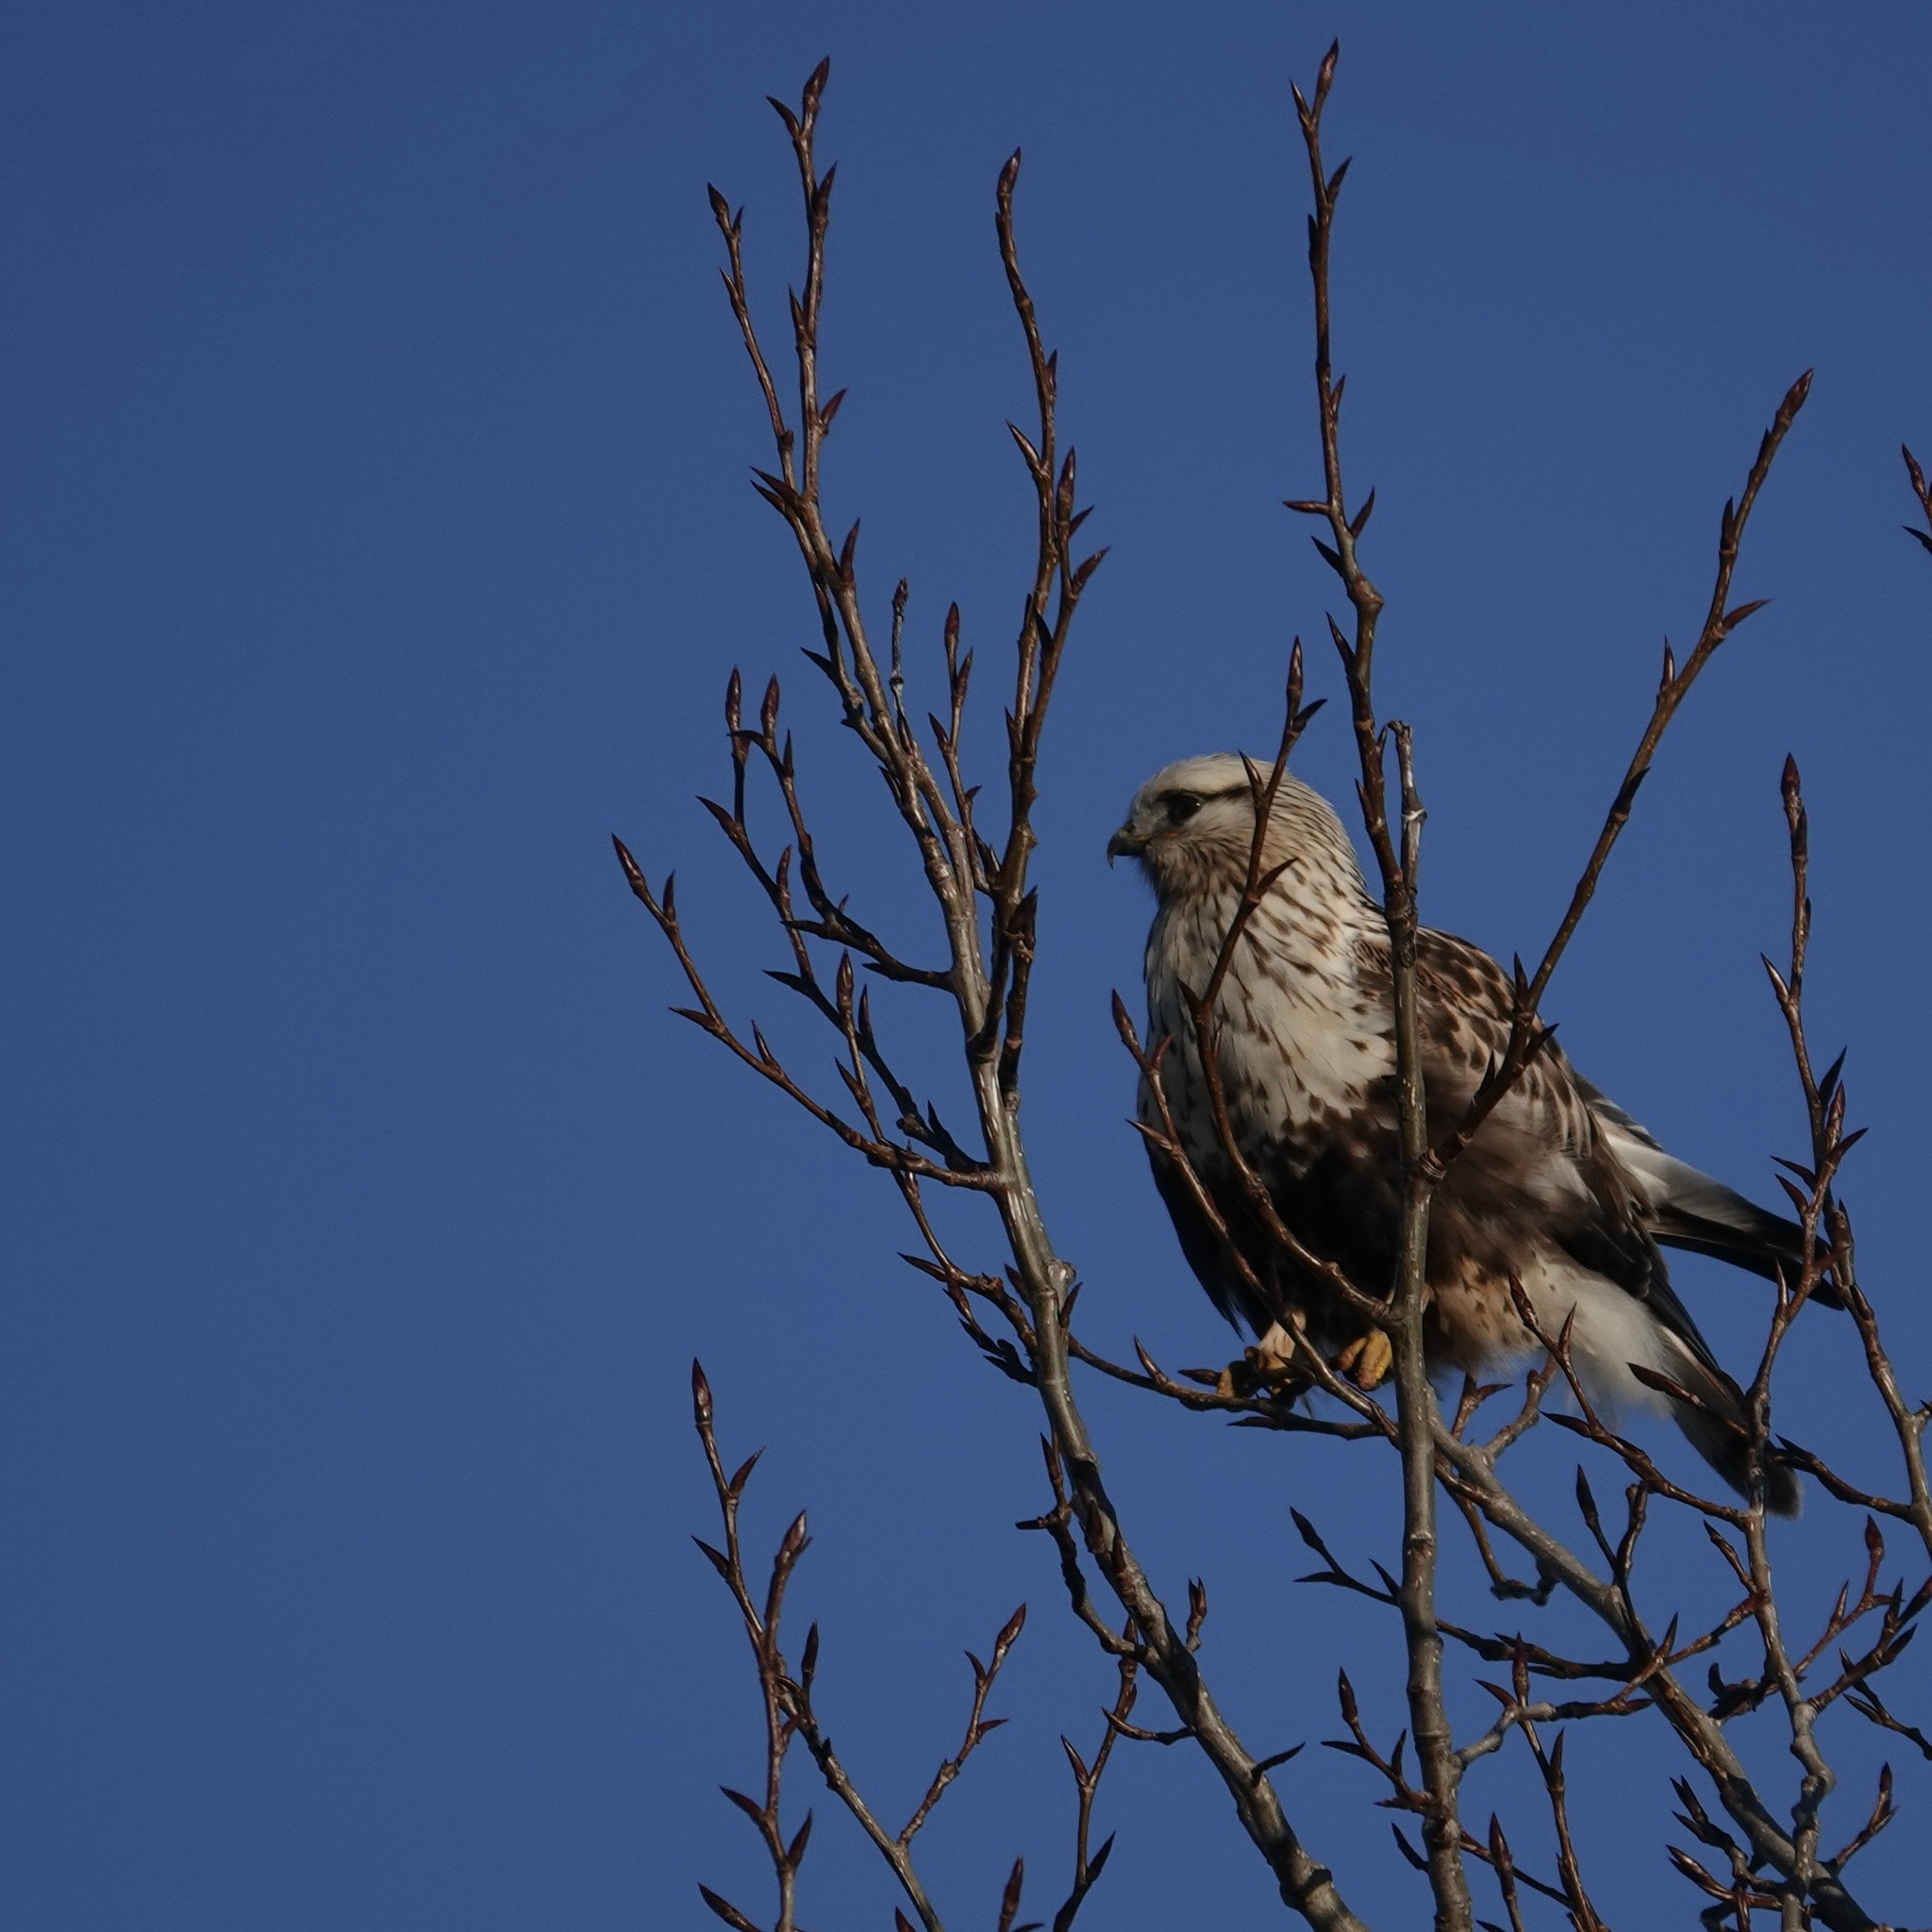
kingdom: Animalia
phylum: Chordata
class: Aves
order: Accipitriformes
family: Accipitridae
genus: Buteo
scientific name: Buteo lagopus
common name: Rough-legged buzzard
